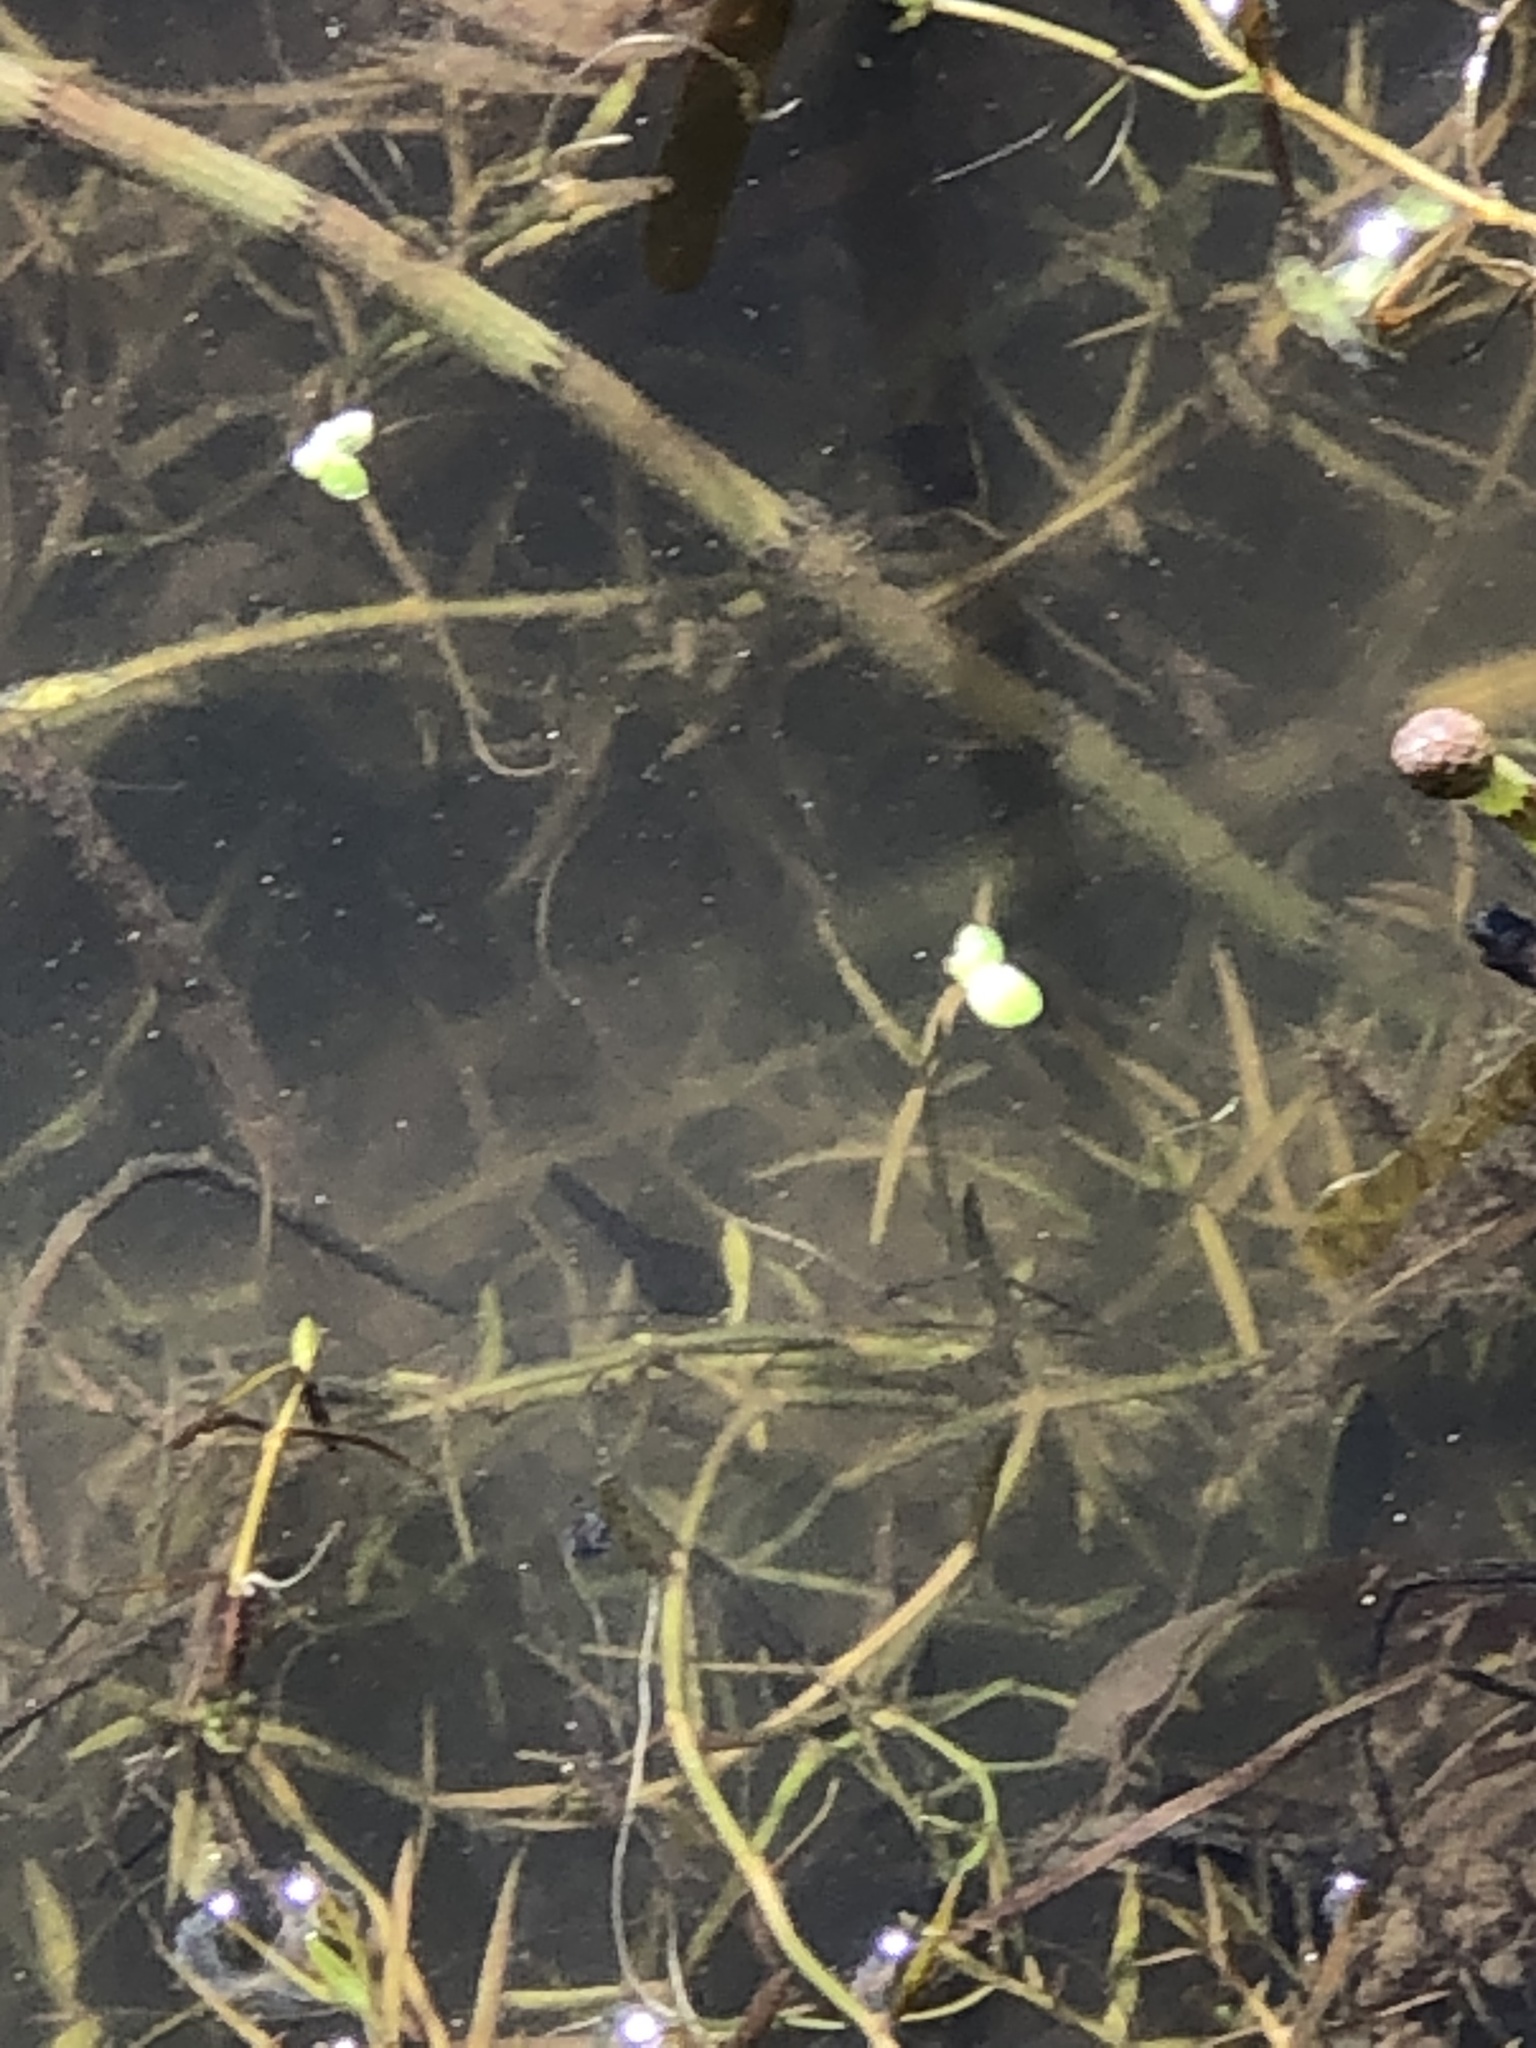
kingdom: Animalia
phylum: Chordata
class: Amphibia
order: Anura
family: Bufonidae
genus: Bufo
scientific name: Bufo bufo
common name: Common toad
